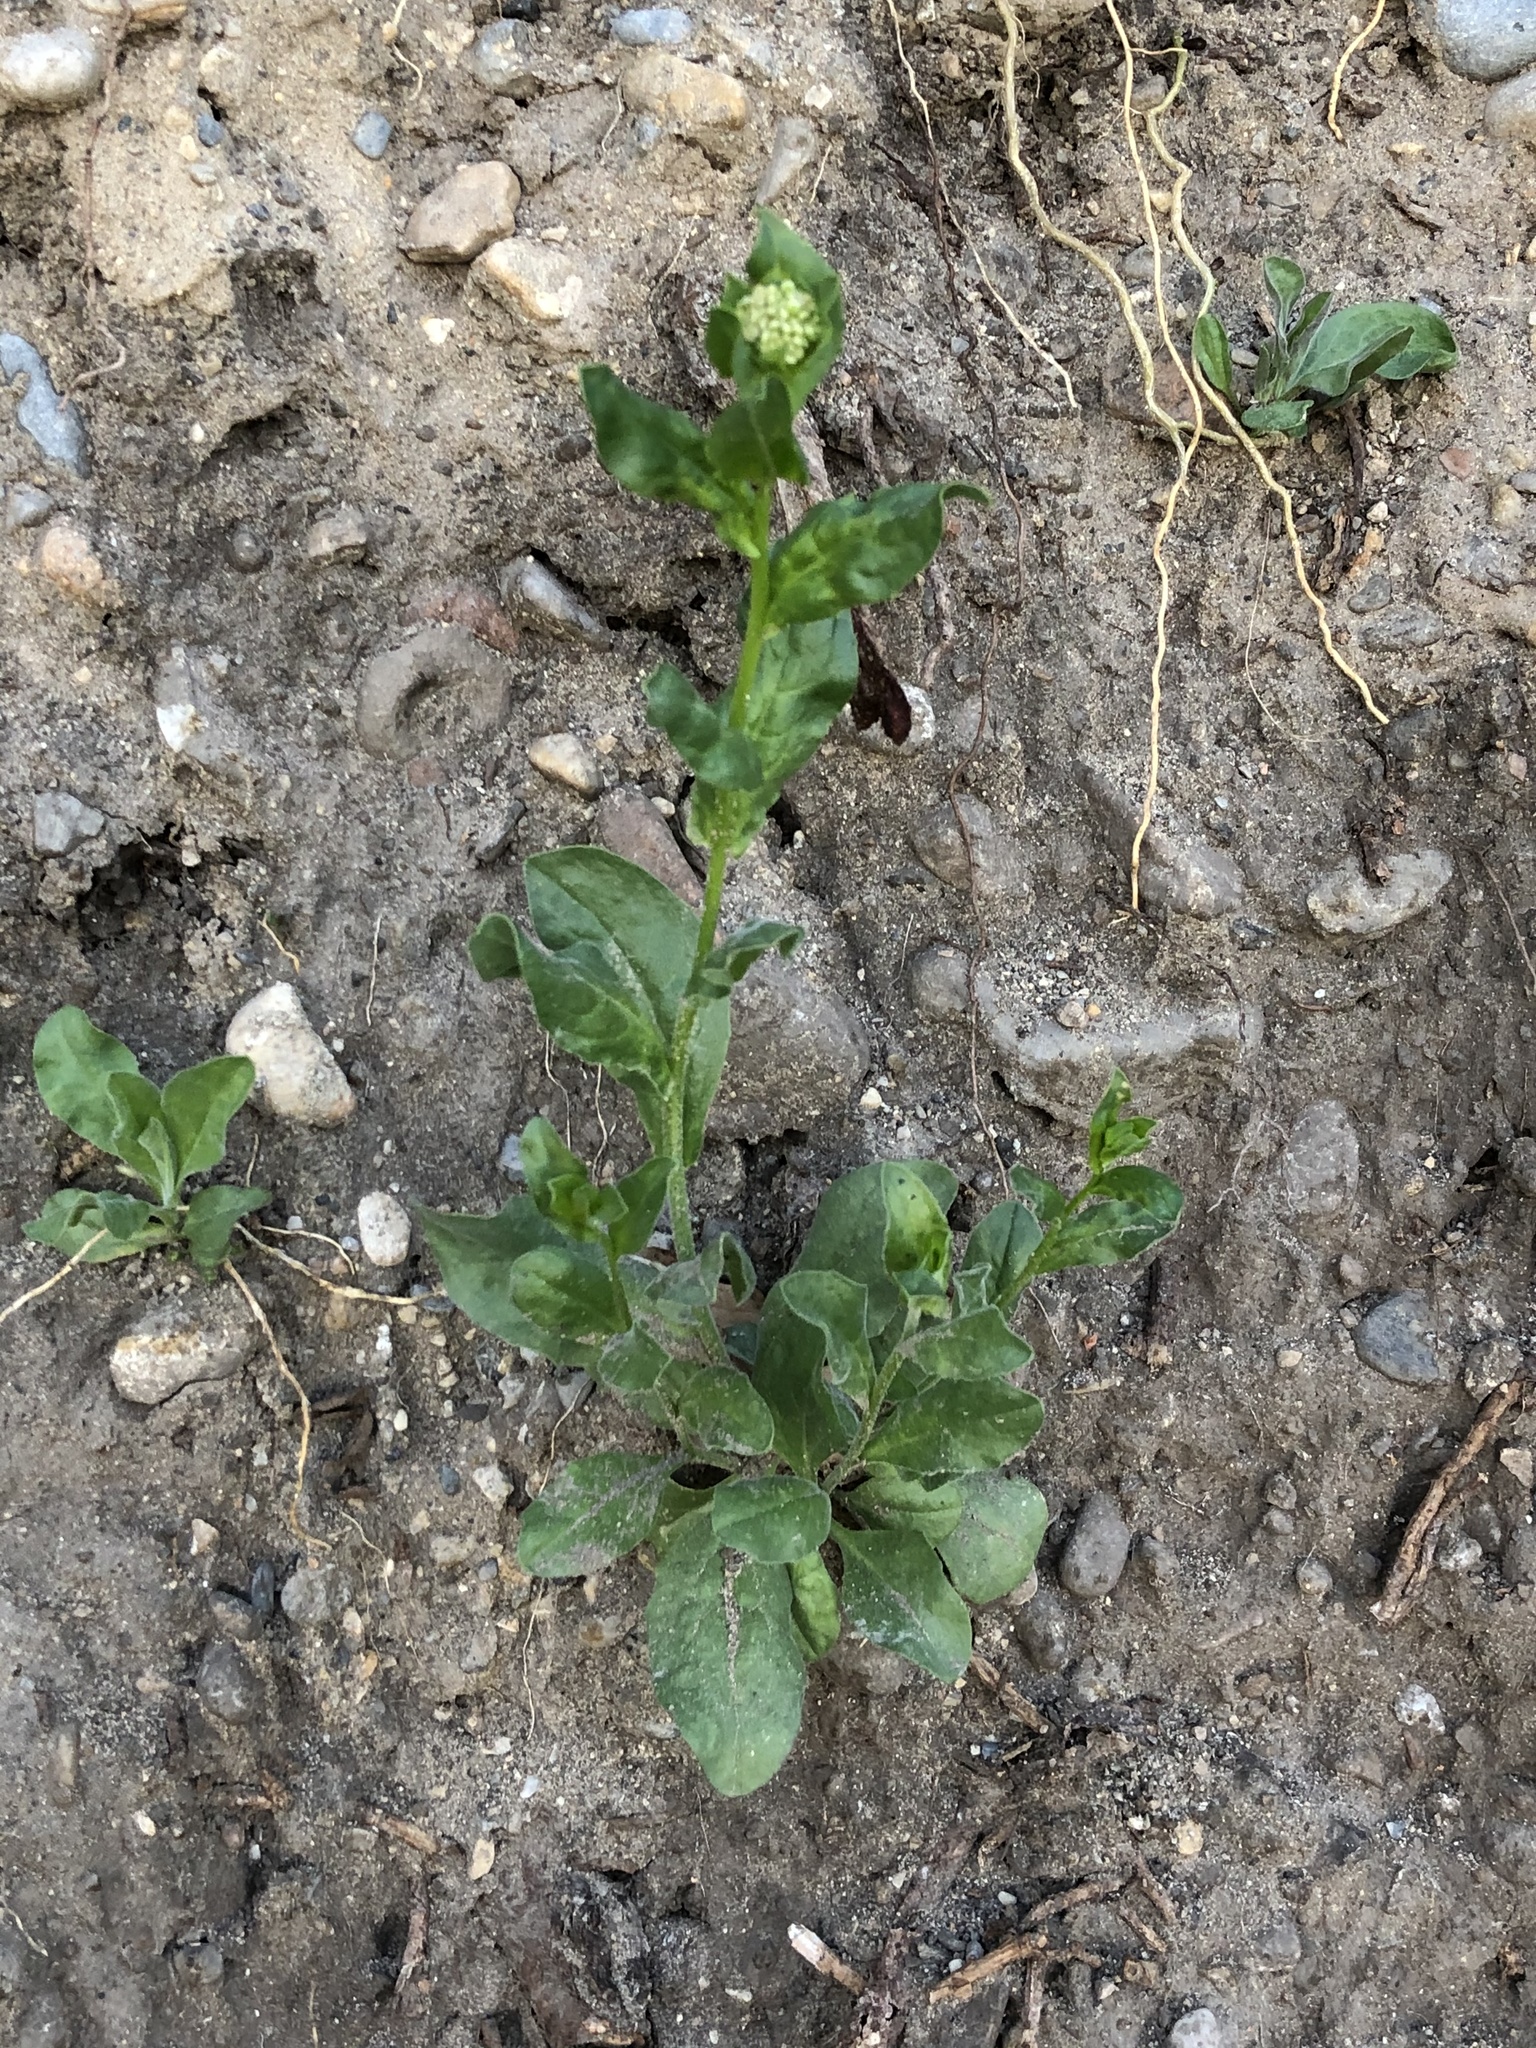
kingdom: Plantae
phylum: Tracheophyta
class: Magnoliopsida
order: Brassicales
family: Brassicaceae
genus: Lepidium
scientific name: Lepidium draba
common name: Hoary cress
